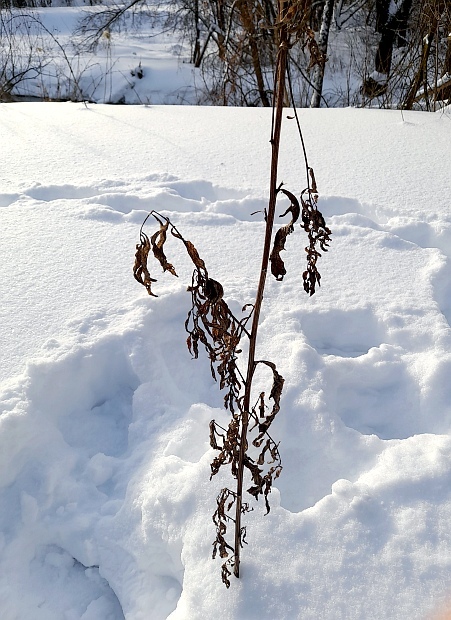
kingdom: Plantae
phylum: Tracheophyta
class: Magnoliopsida
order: Asterales
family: Asteraceae
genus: Artemisia
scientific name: Artemisia vulgaris
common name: Mugwort
